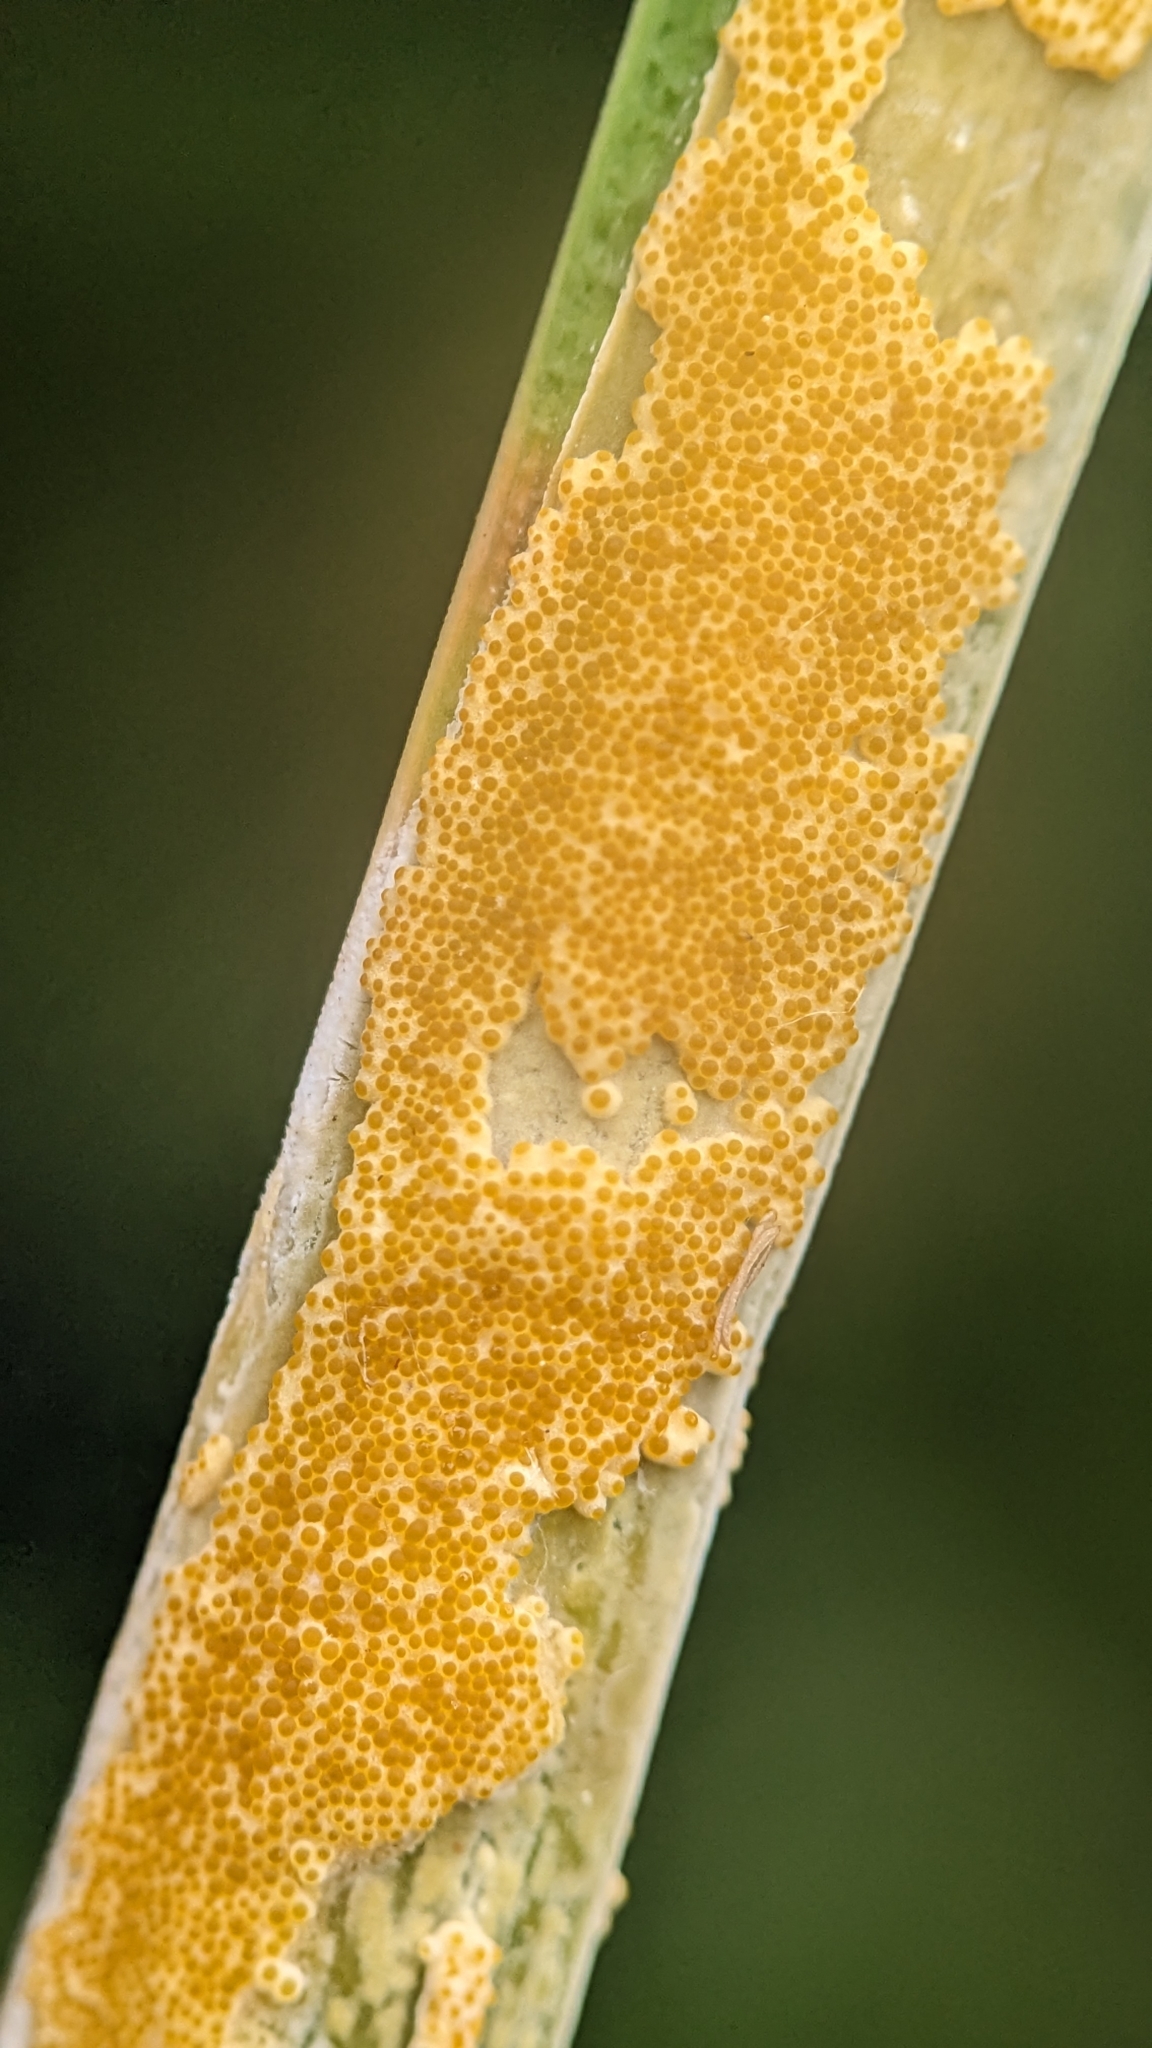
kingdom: Fungi
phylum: Ascomycota
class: Sordariomycetes
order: Hypocreales
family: Clavicipitaceae
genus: Epichloe
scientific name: Epichloe typhina
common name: Choke
